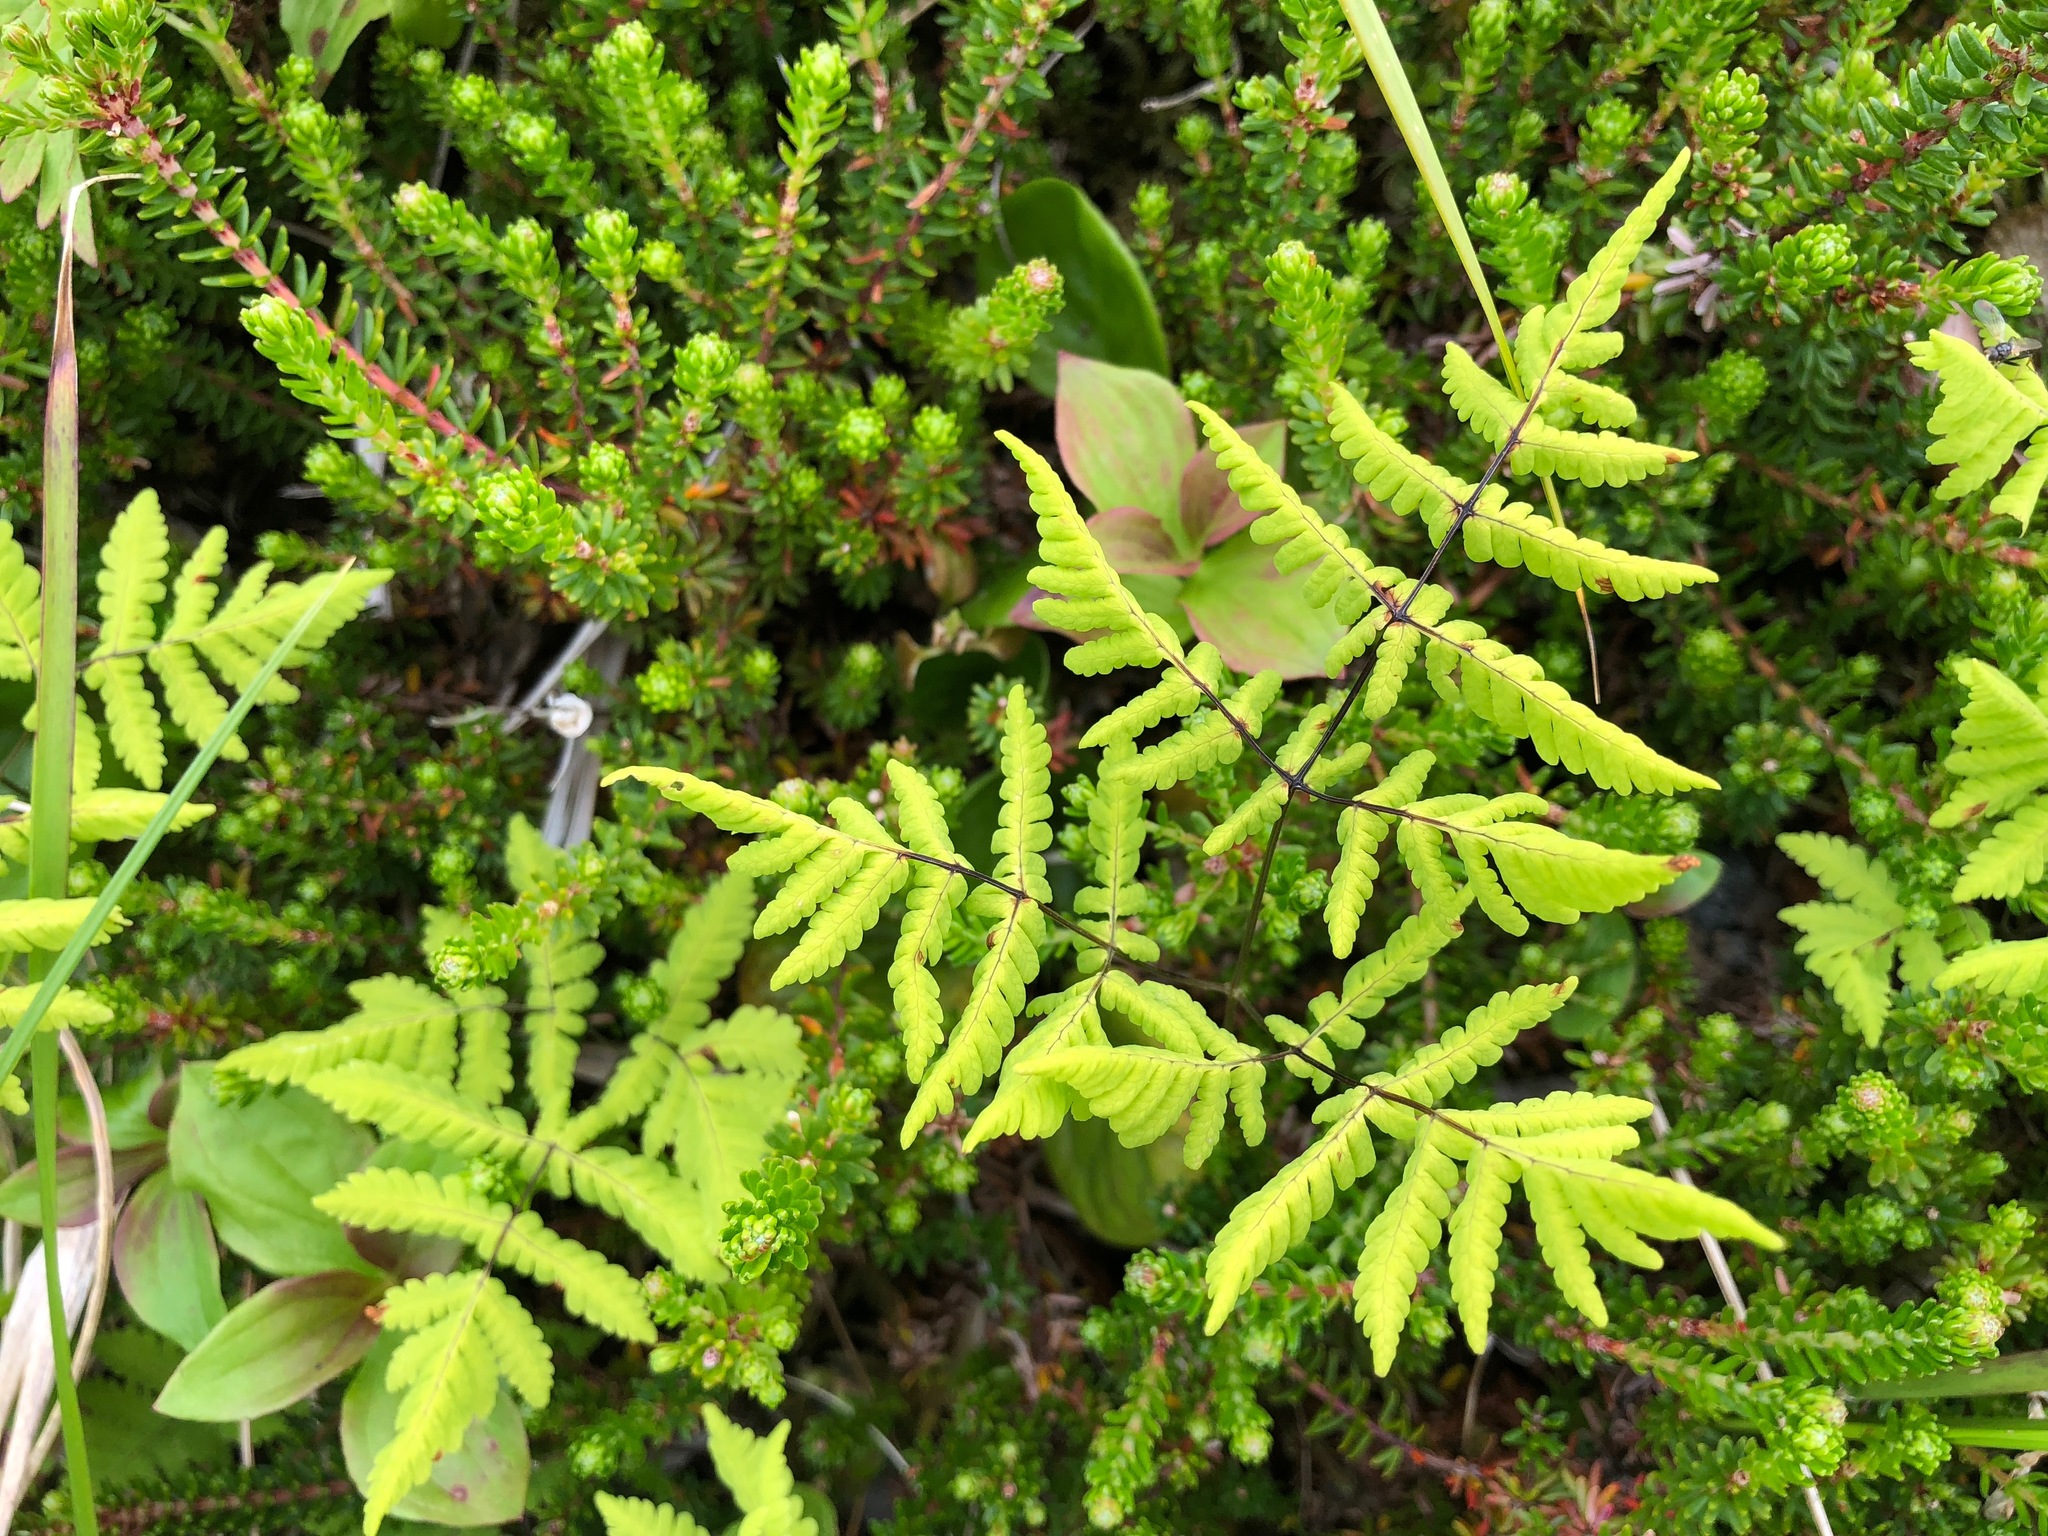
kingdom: Plantae
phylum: Tracheophyta
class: Polypodiopsida
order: Polypodiales
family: Cystopteridaceae
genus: Gymnocarpium
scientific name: Gymnocarpium dryopteris
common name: Oak fern
